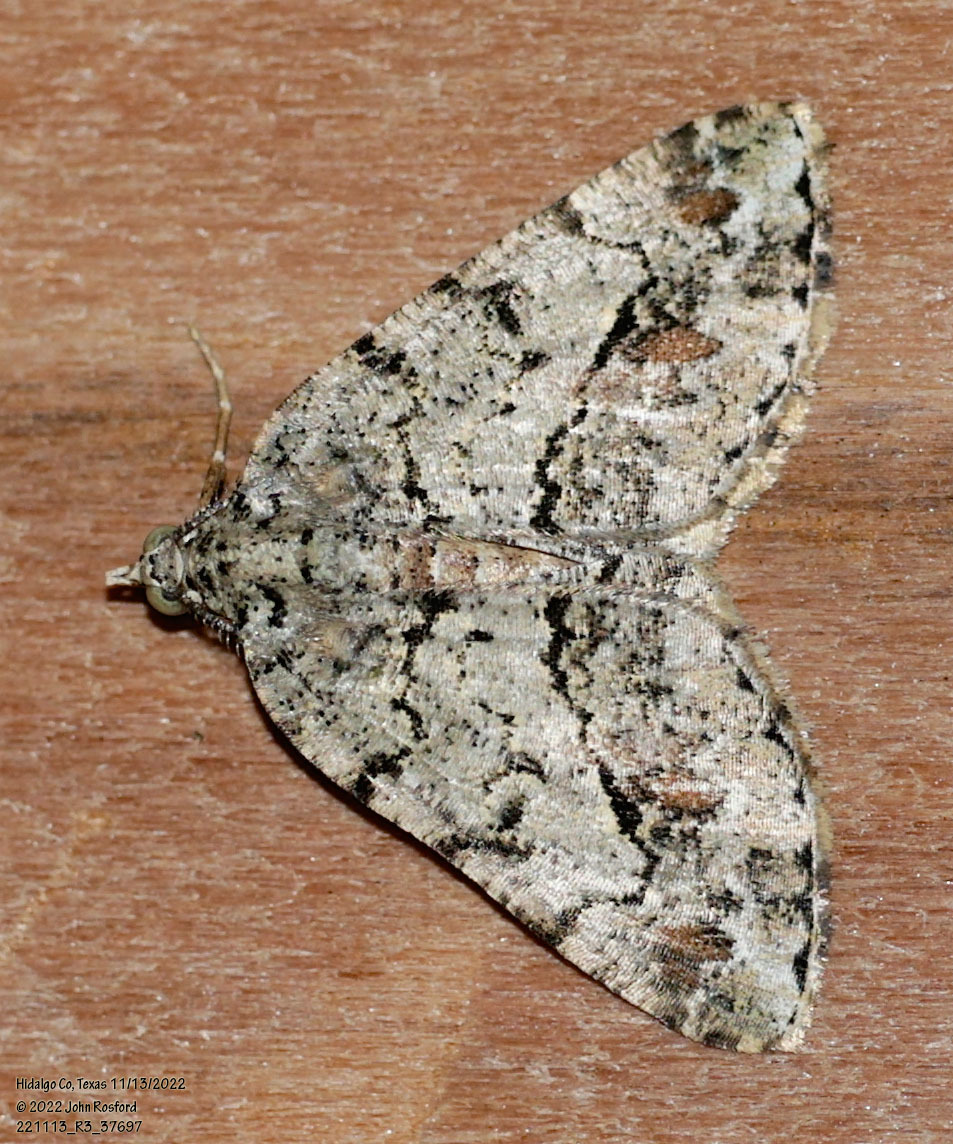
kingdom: Animalia
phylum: Arthropoda
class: Insecta
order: Lepidoptera
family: Geometridae
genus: Macaria
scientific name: Macaria graphidaria
